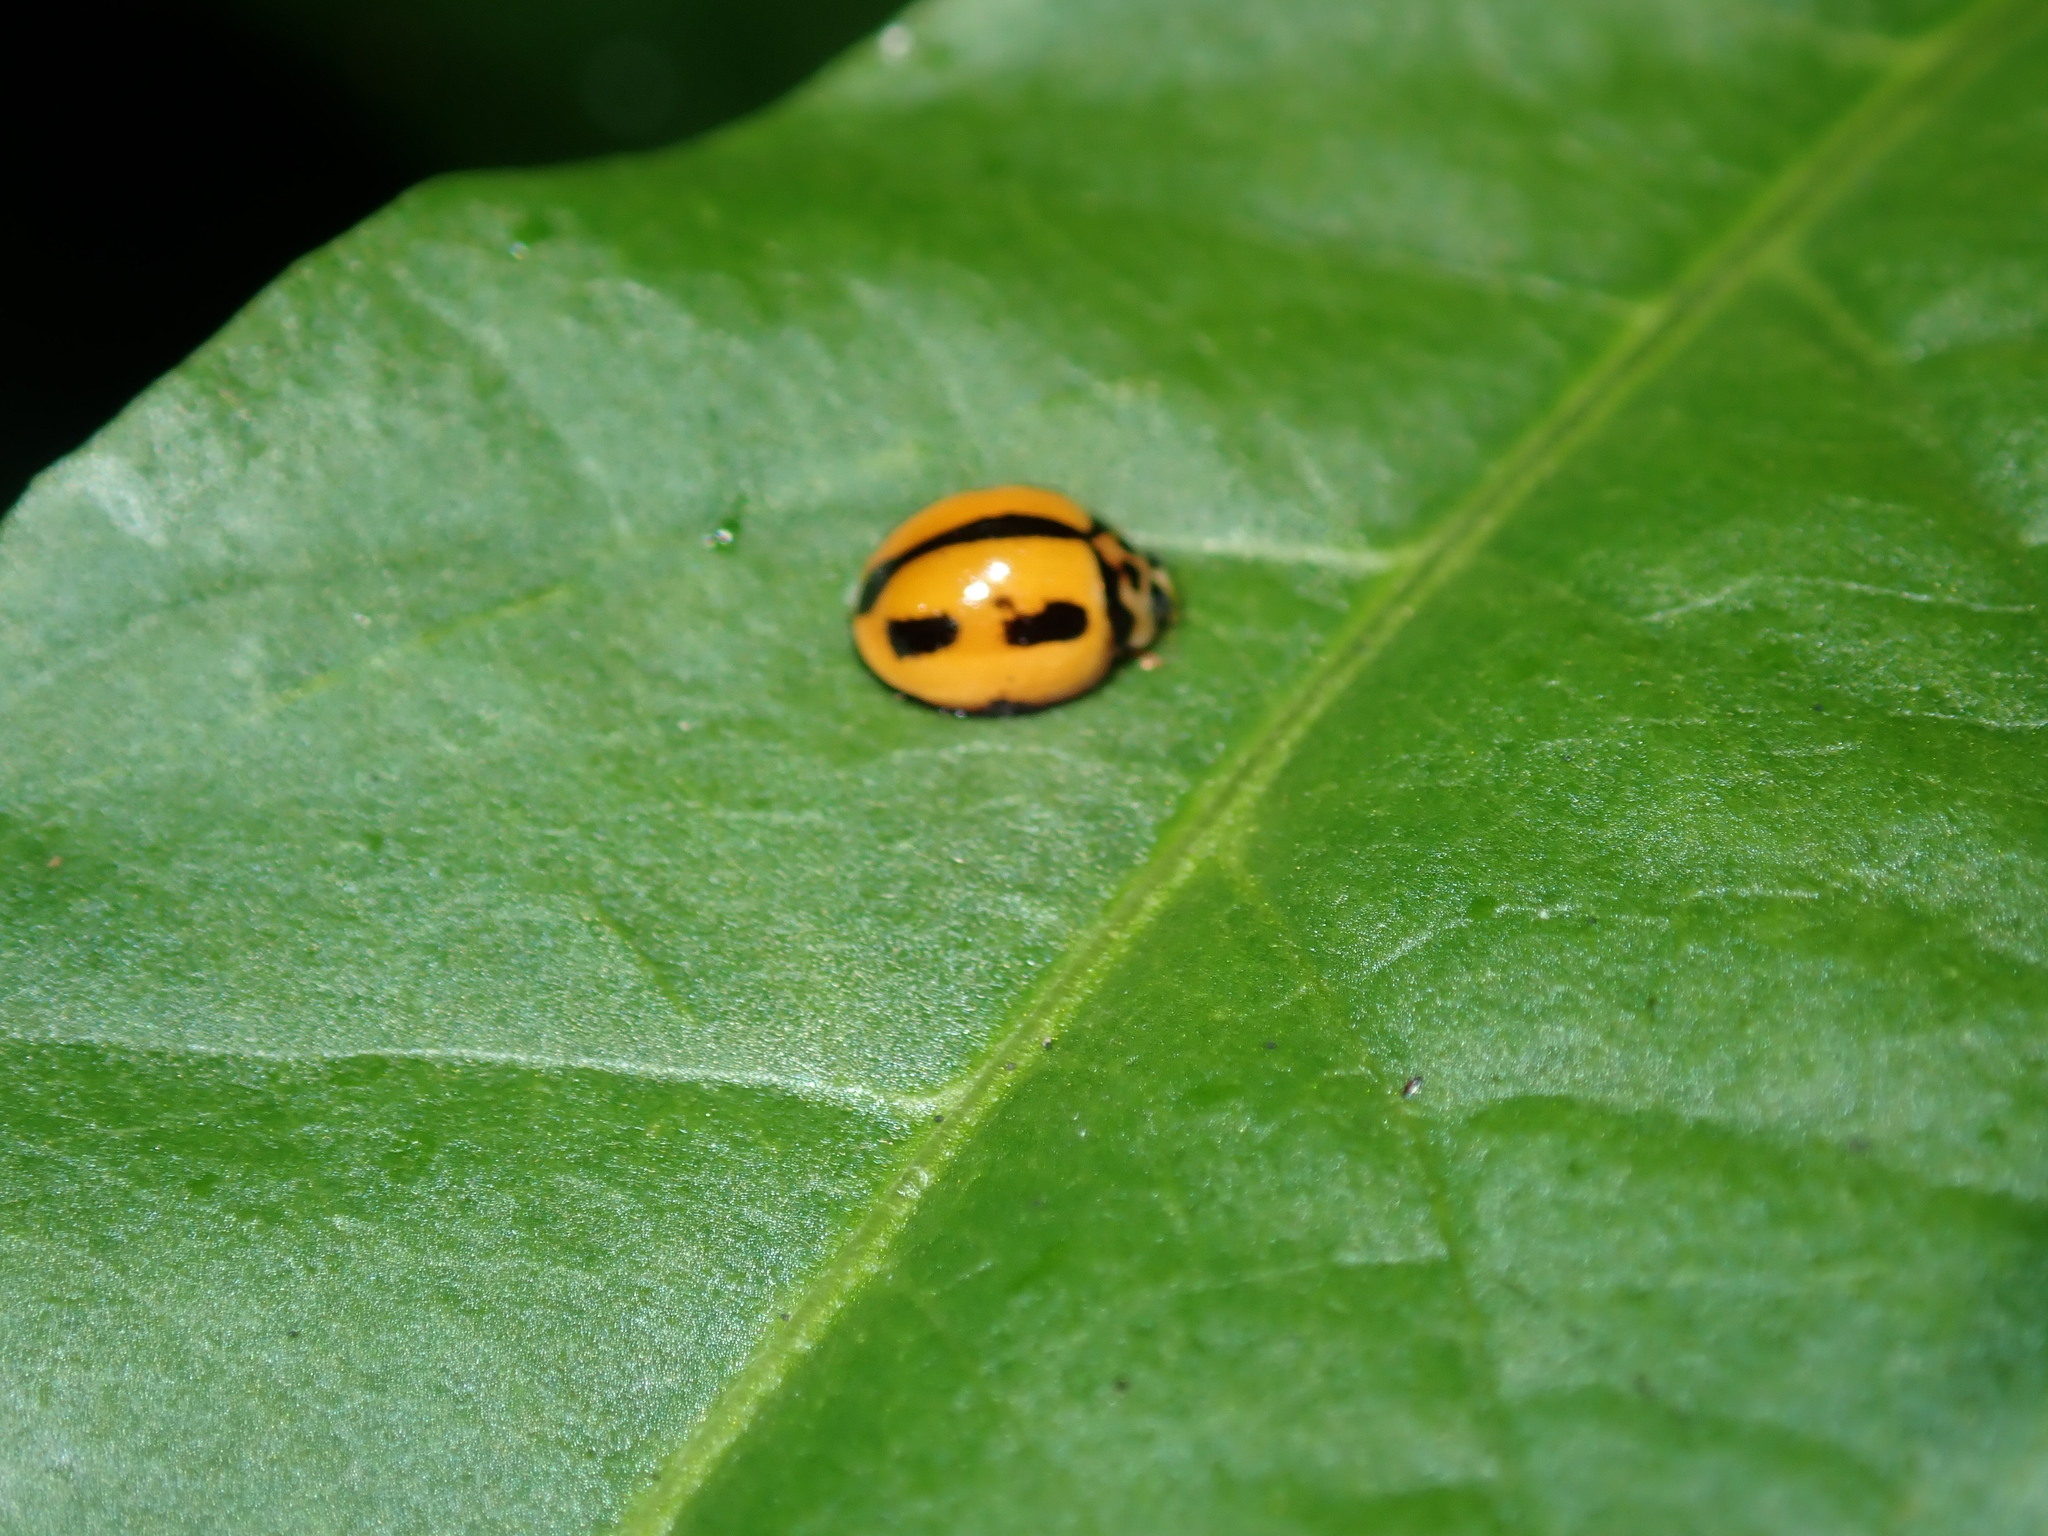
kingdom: Animalia
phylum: Arthropoda
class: Insecta
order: Coleoptera
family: Coccinellidae
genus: Coelophora
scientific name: Coelophora inaequalis
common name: Common australian lady beetle
